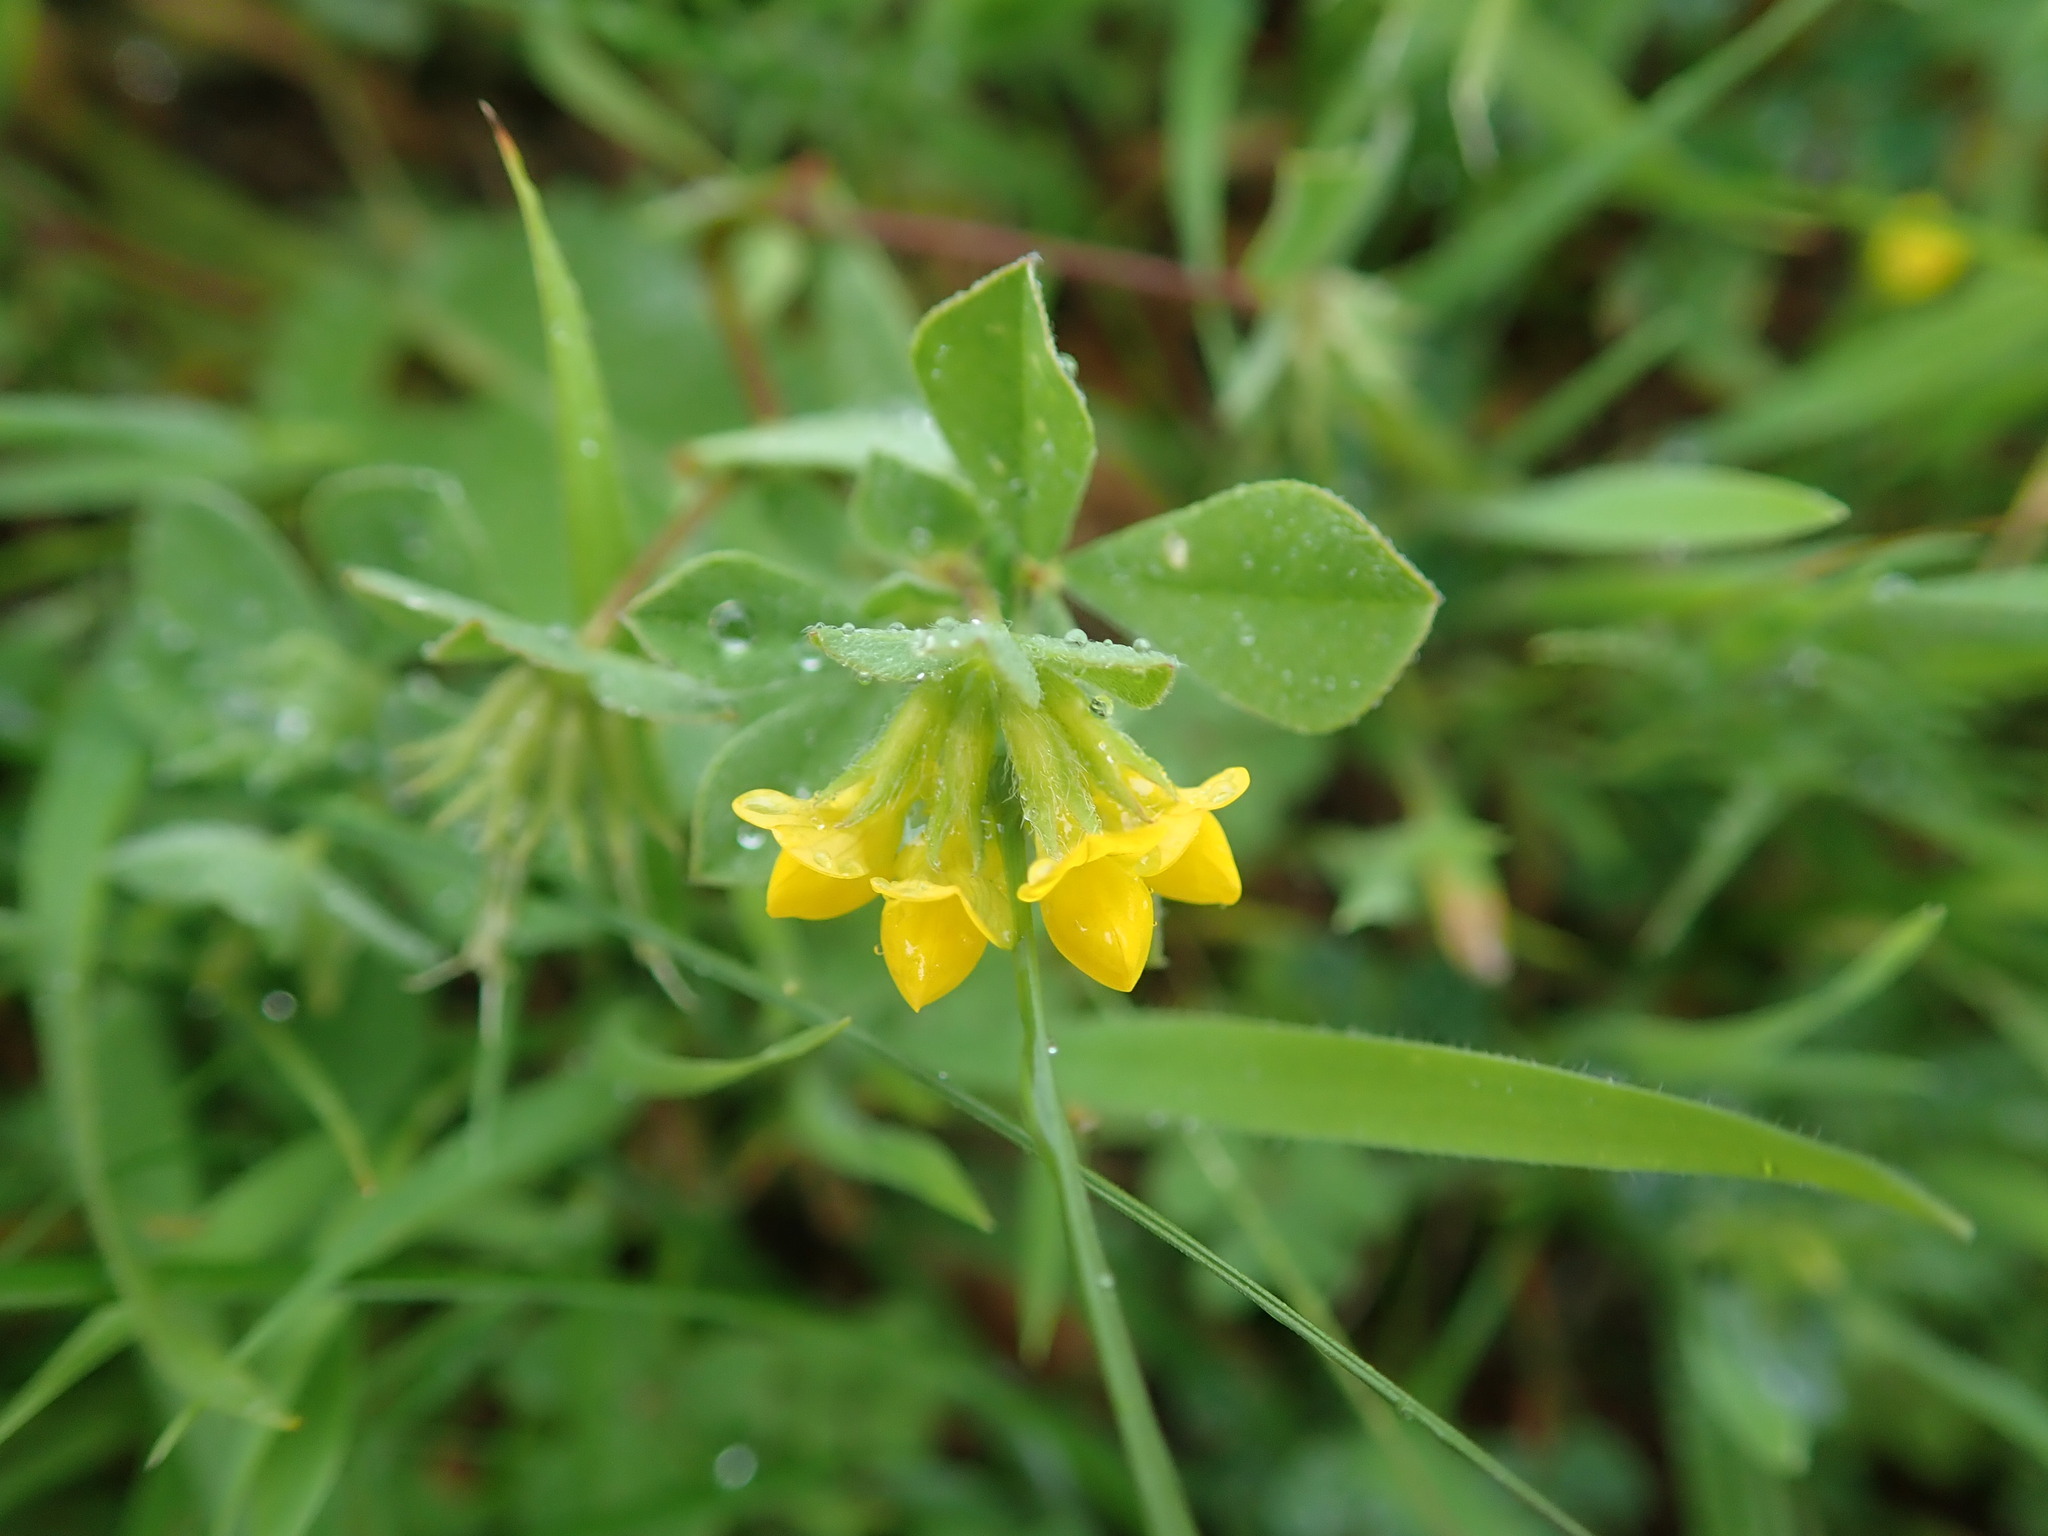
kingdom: Plantae
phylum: Tracheophyta
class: Magnoliopsida
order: Fabales
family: Fabaceae
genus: Lotus
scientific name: Lotus ornithopodioides
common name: Southern bird's-foot trefoil
